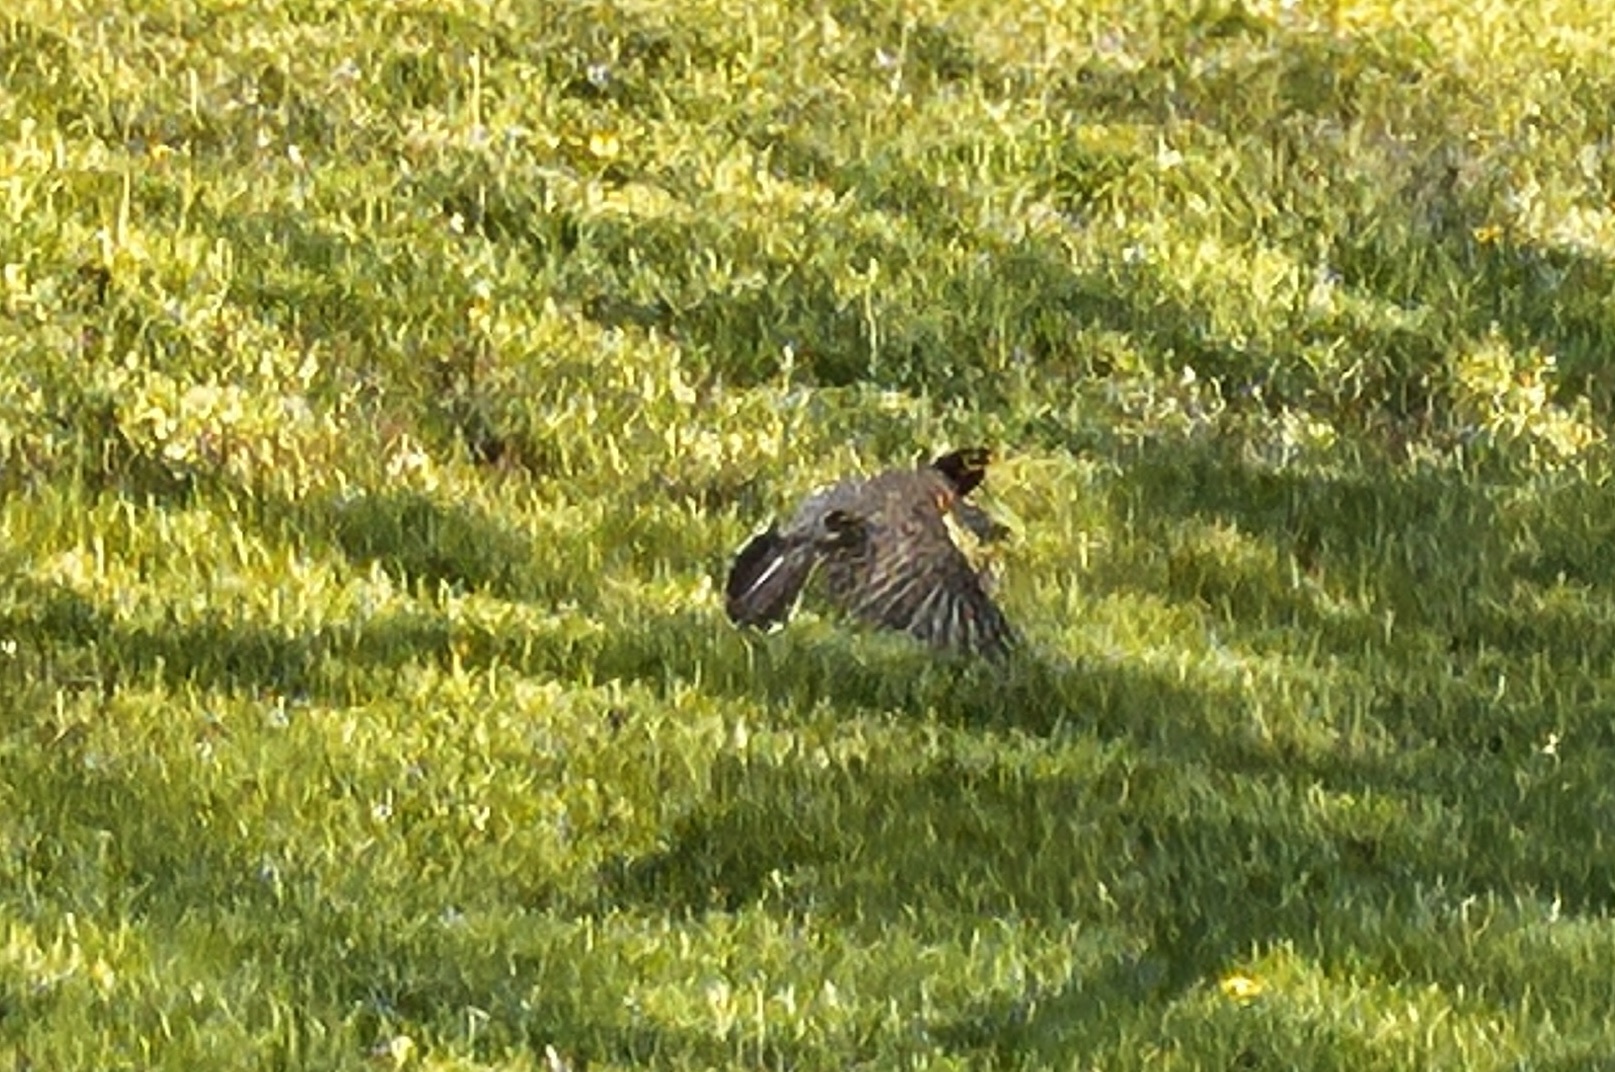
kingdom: Animalia
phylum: Chordata
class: Aves
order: Passeriformes
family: Turdidae
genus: Turdus
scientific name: Turdus migratorius
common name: American robin
